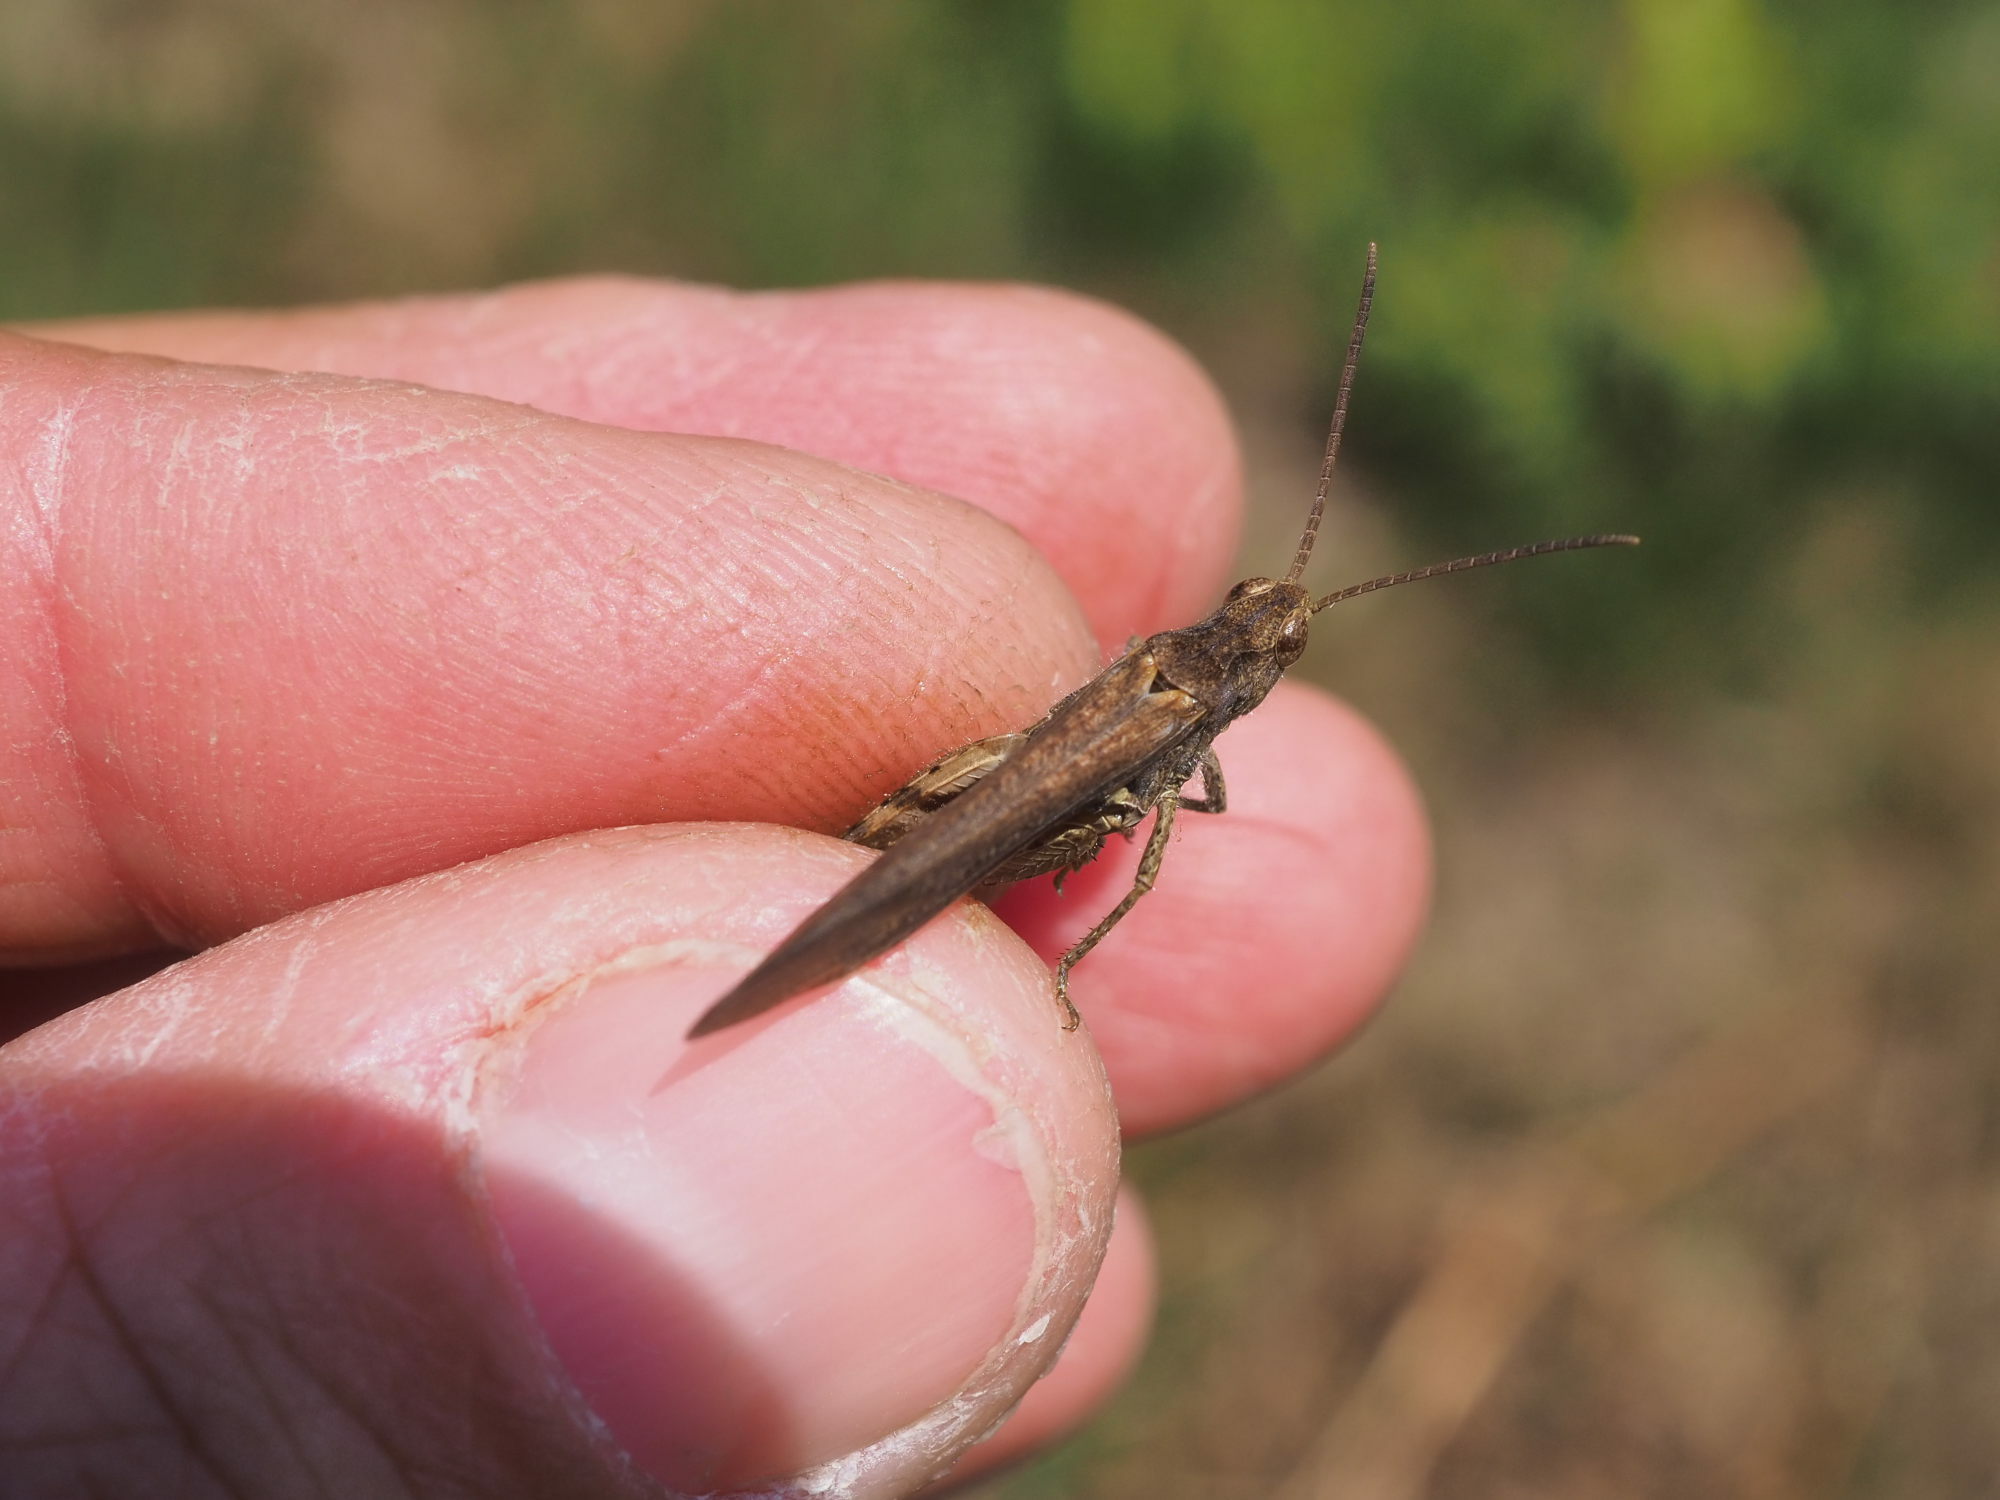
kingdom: Animalia
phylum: Arthropoda
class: Insecta
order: Orthoptera
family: Acrididae
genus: Chorthippus
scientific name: Chorthippus brunneus
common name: Field grasshopper
